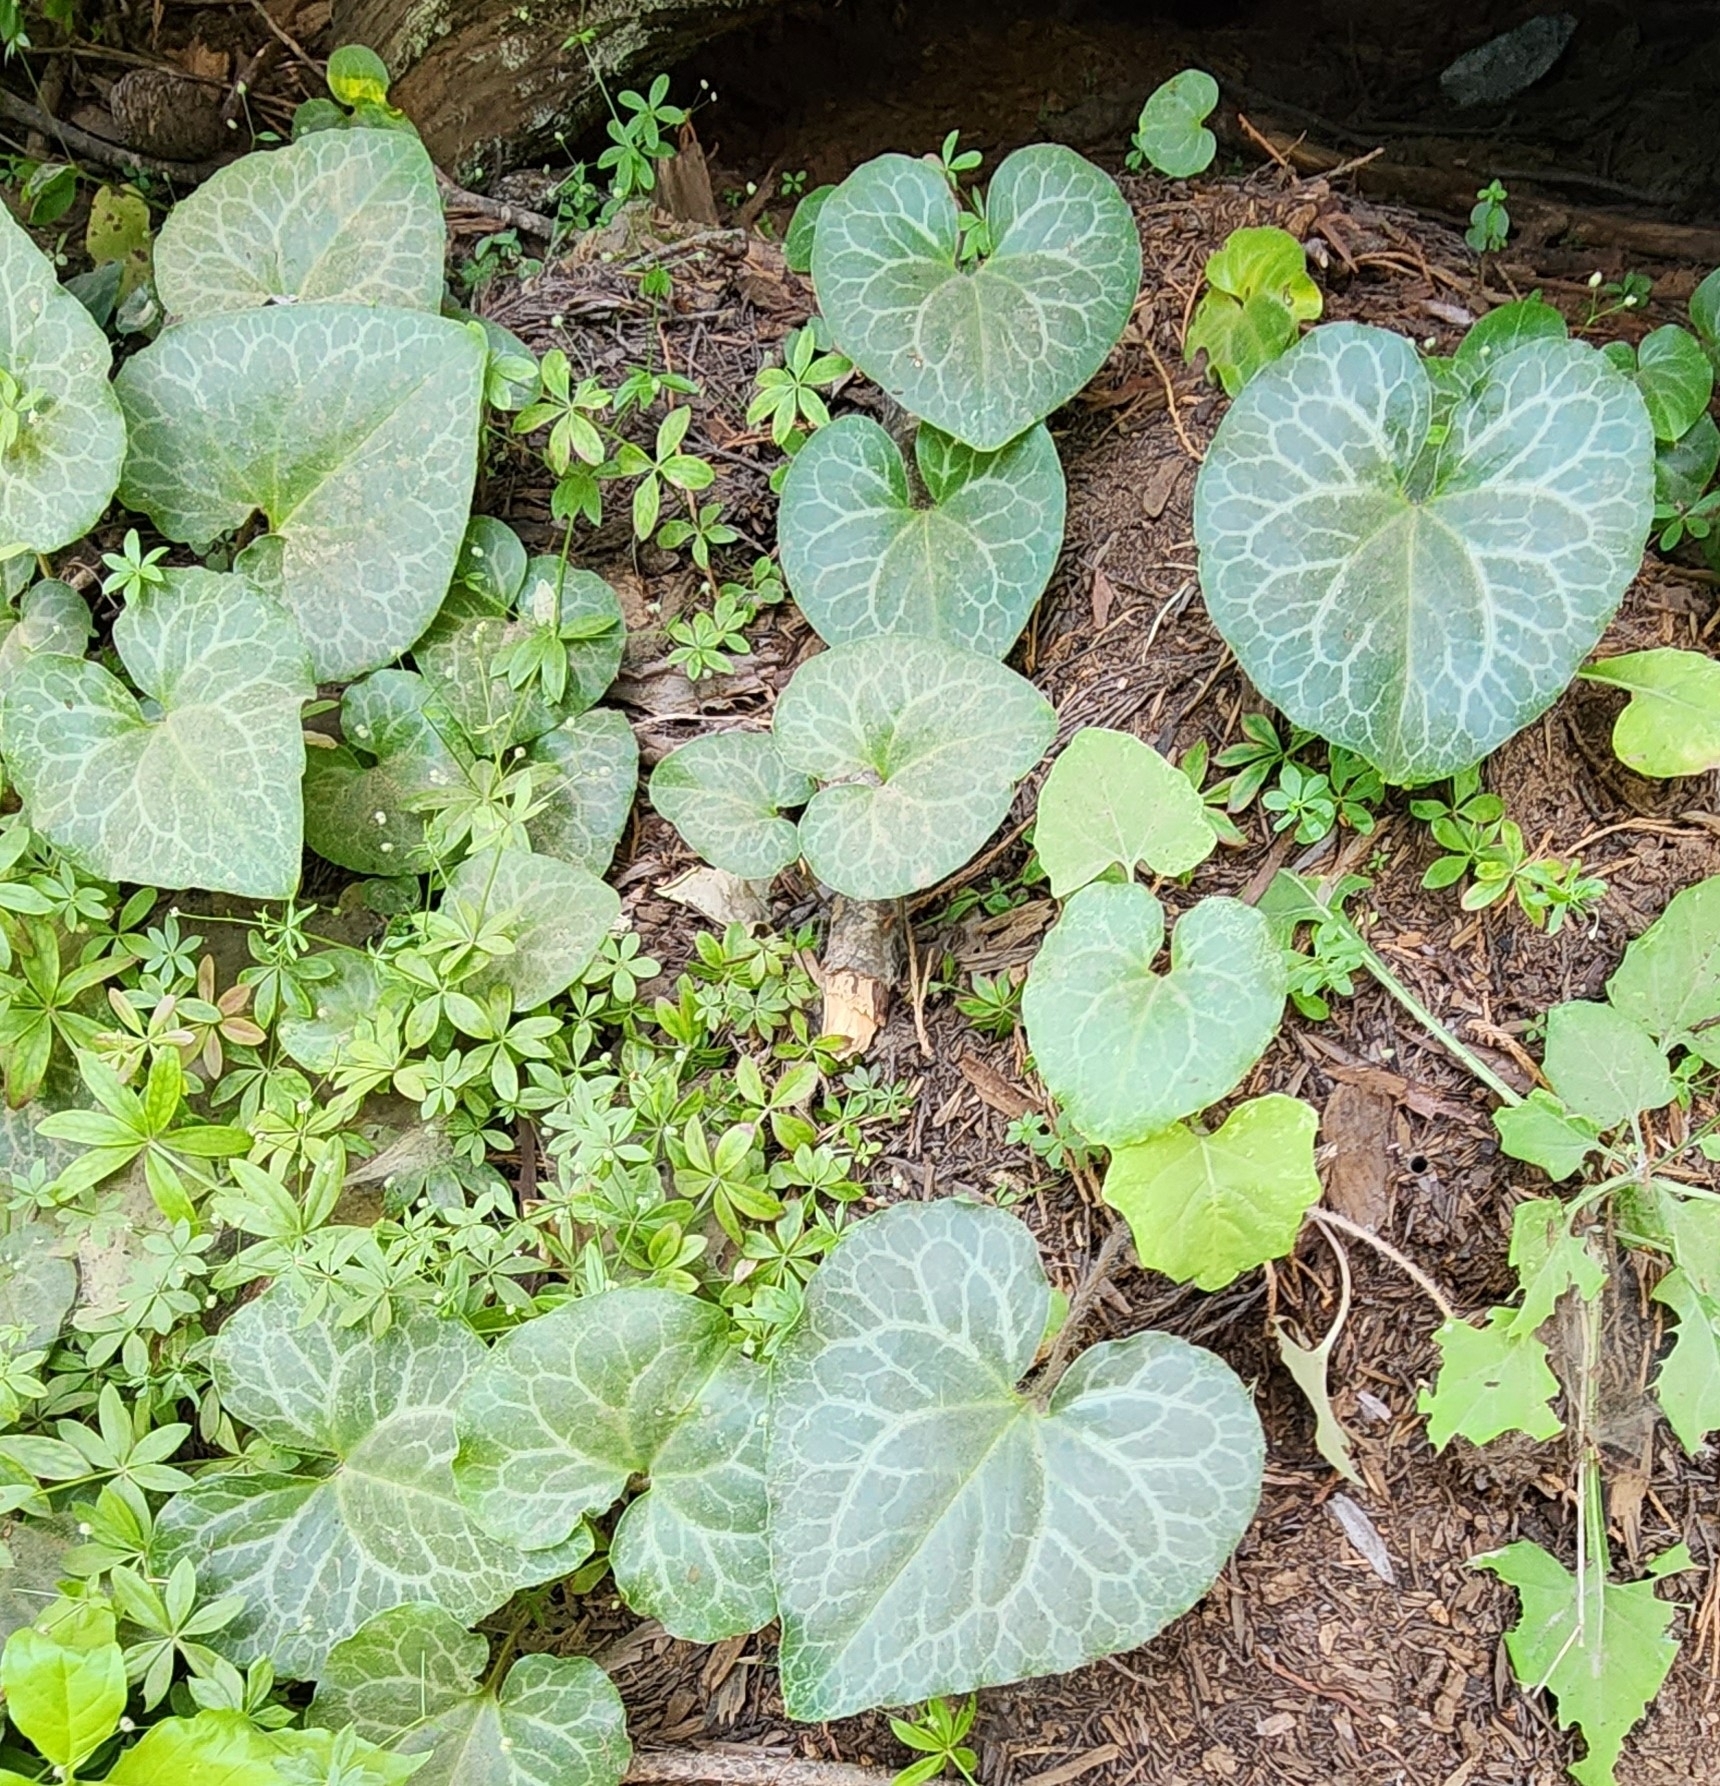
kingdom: Plantae
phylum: Tracheophyta
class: Magnoliopsida
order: Piperales
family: Aristolochiaceae
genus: Asarum
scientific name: Asarum hartwegii
